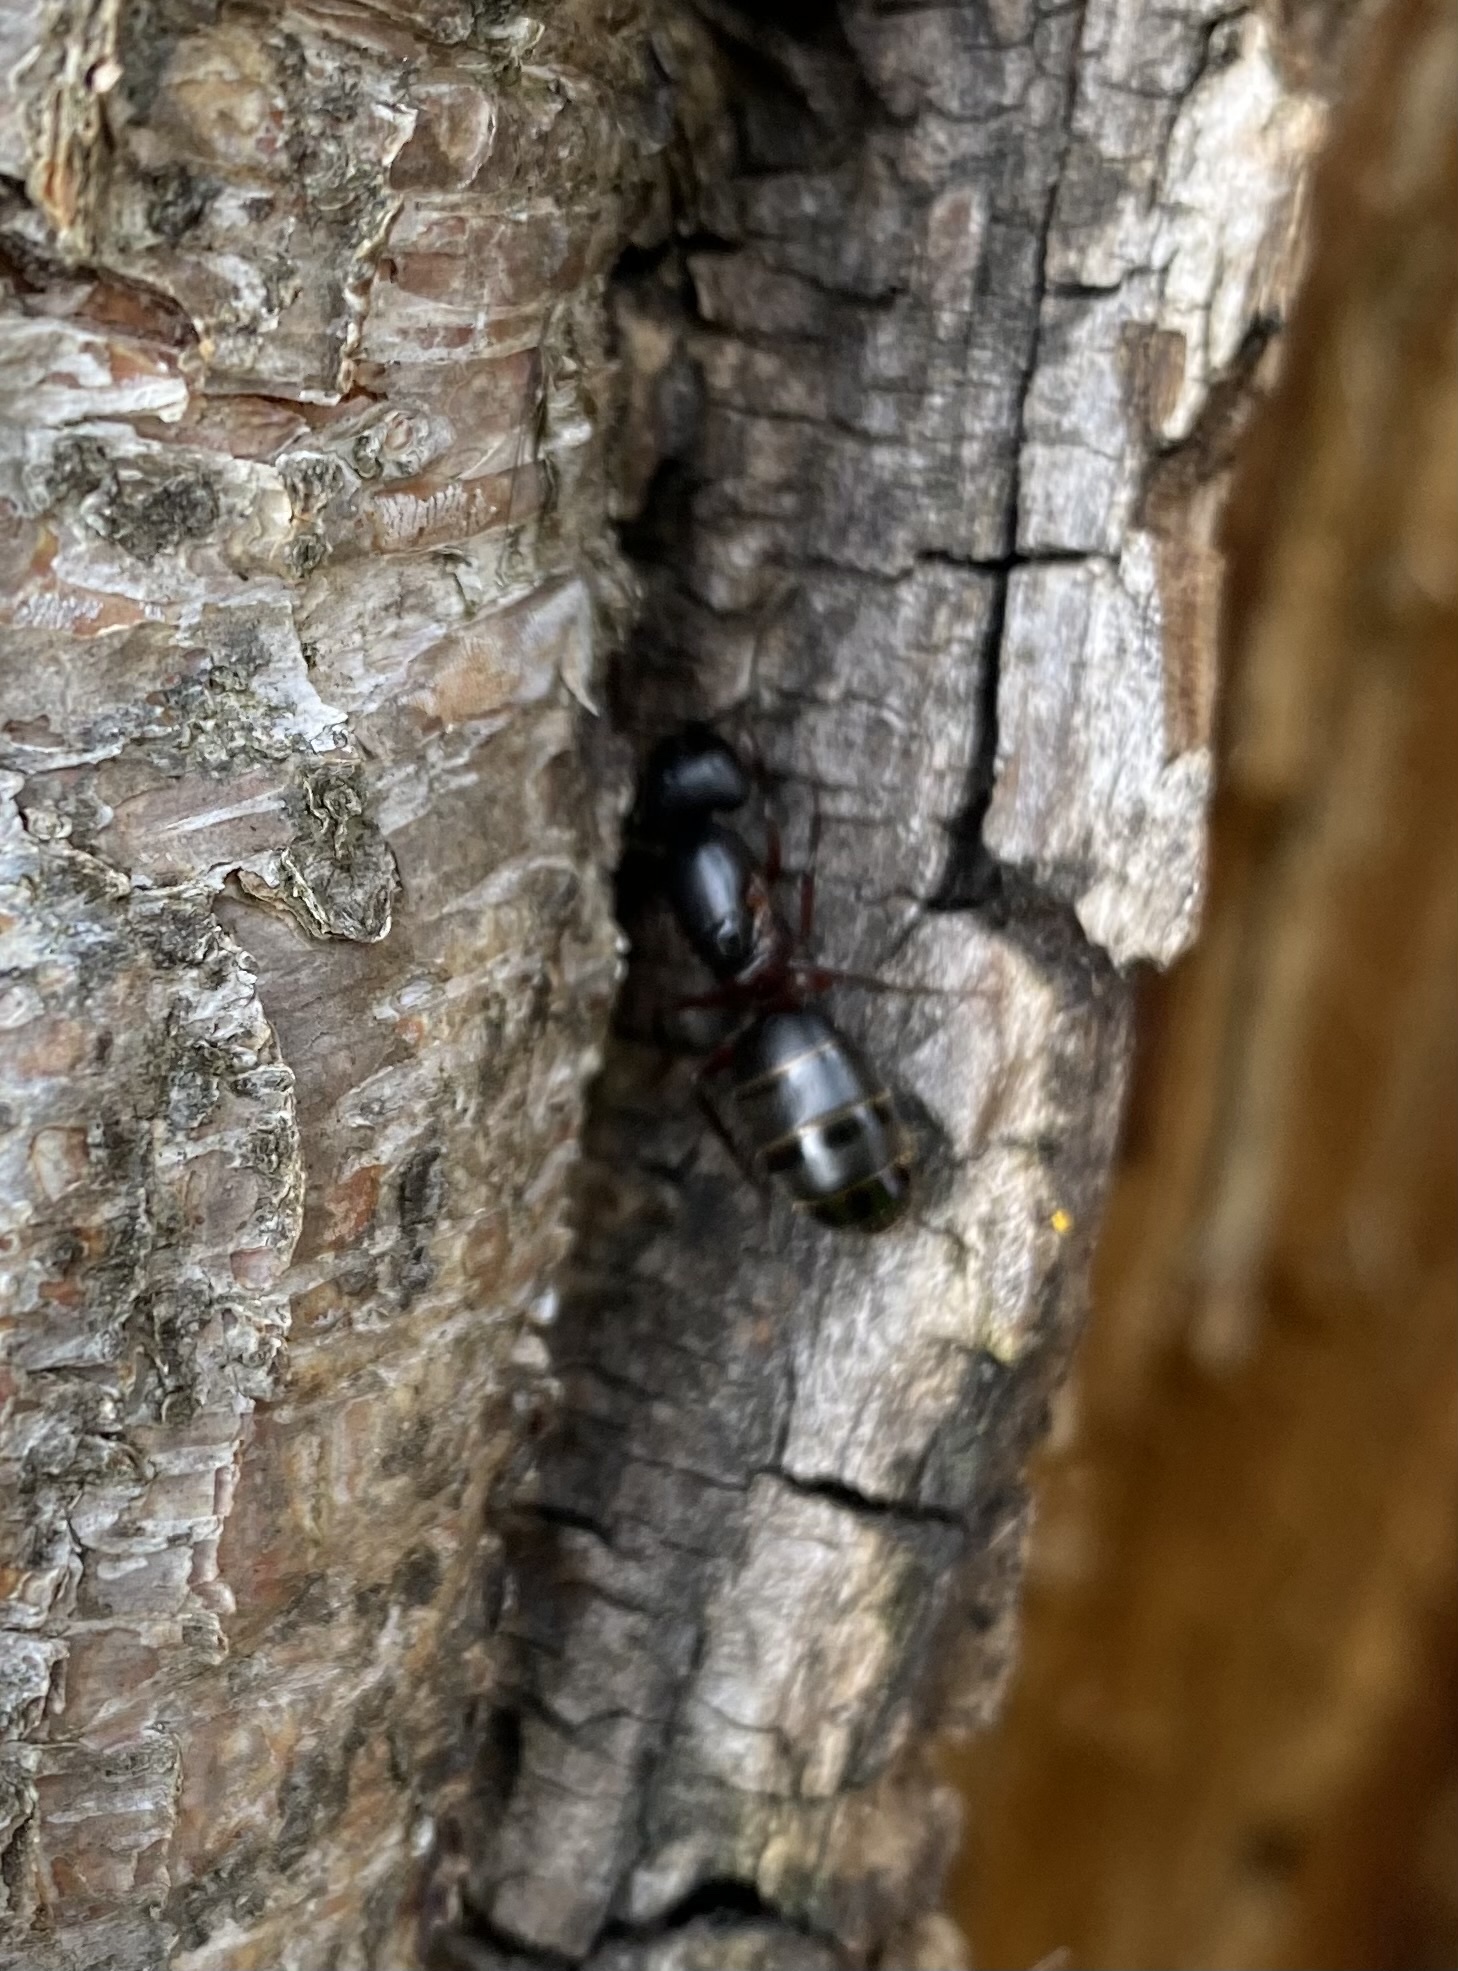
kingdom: Animalia
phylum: Arthropoda
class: Insecta
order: Hymenoptera
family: Formicidae
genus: Camponotus
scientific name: Camponotus
